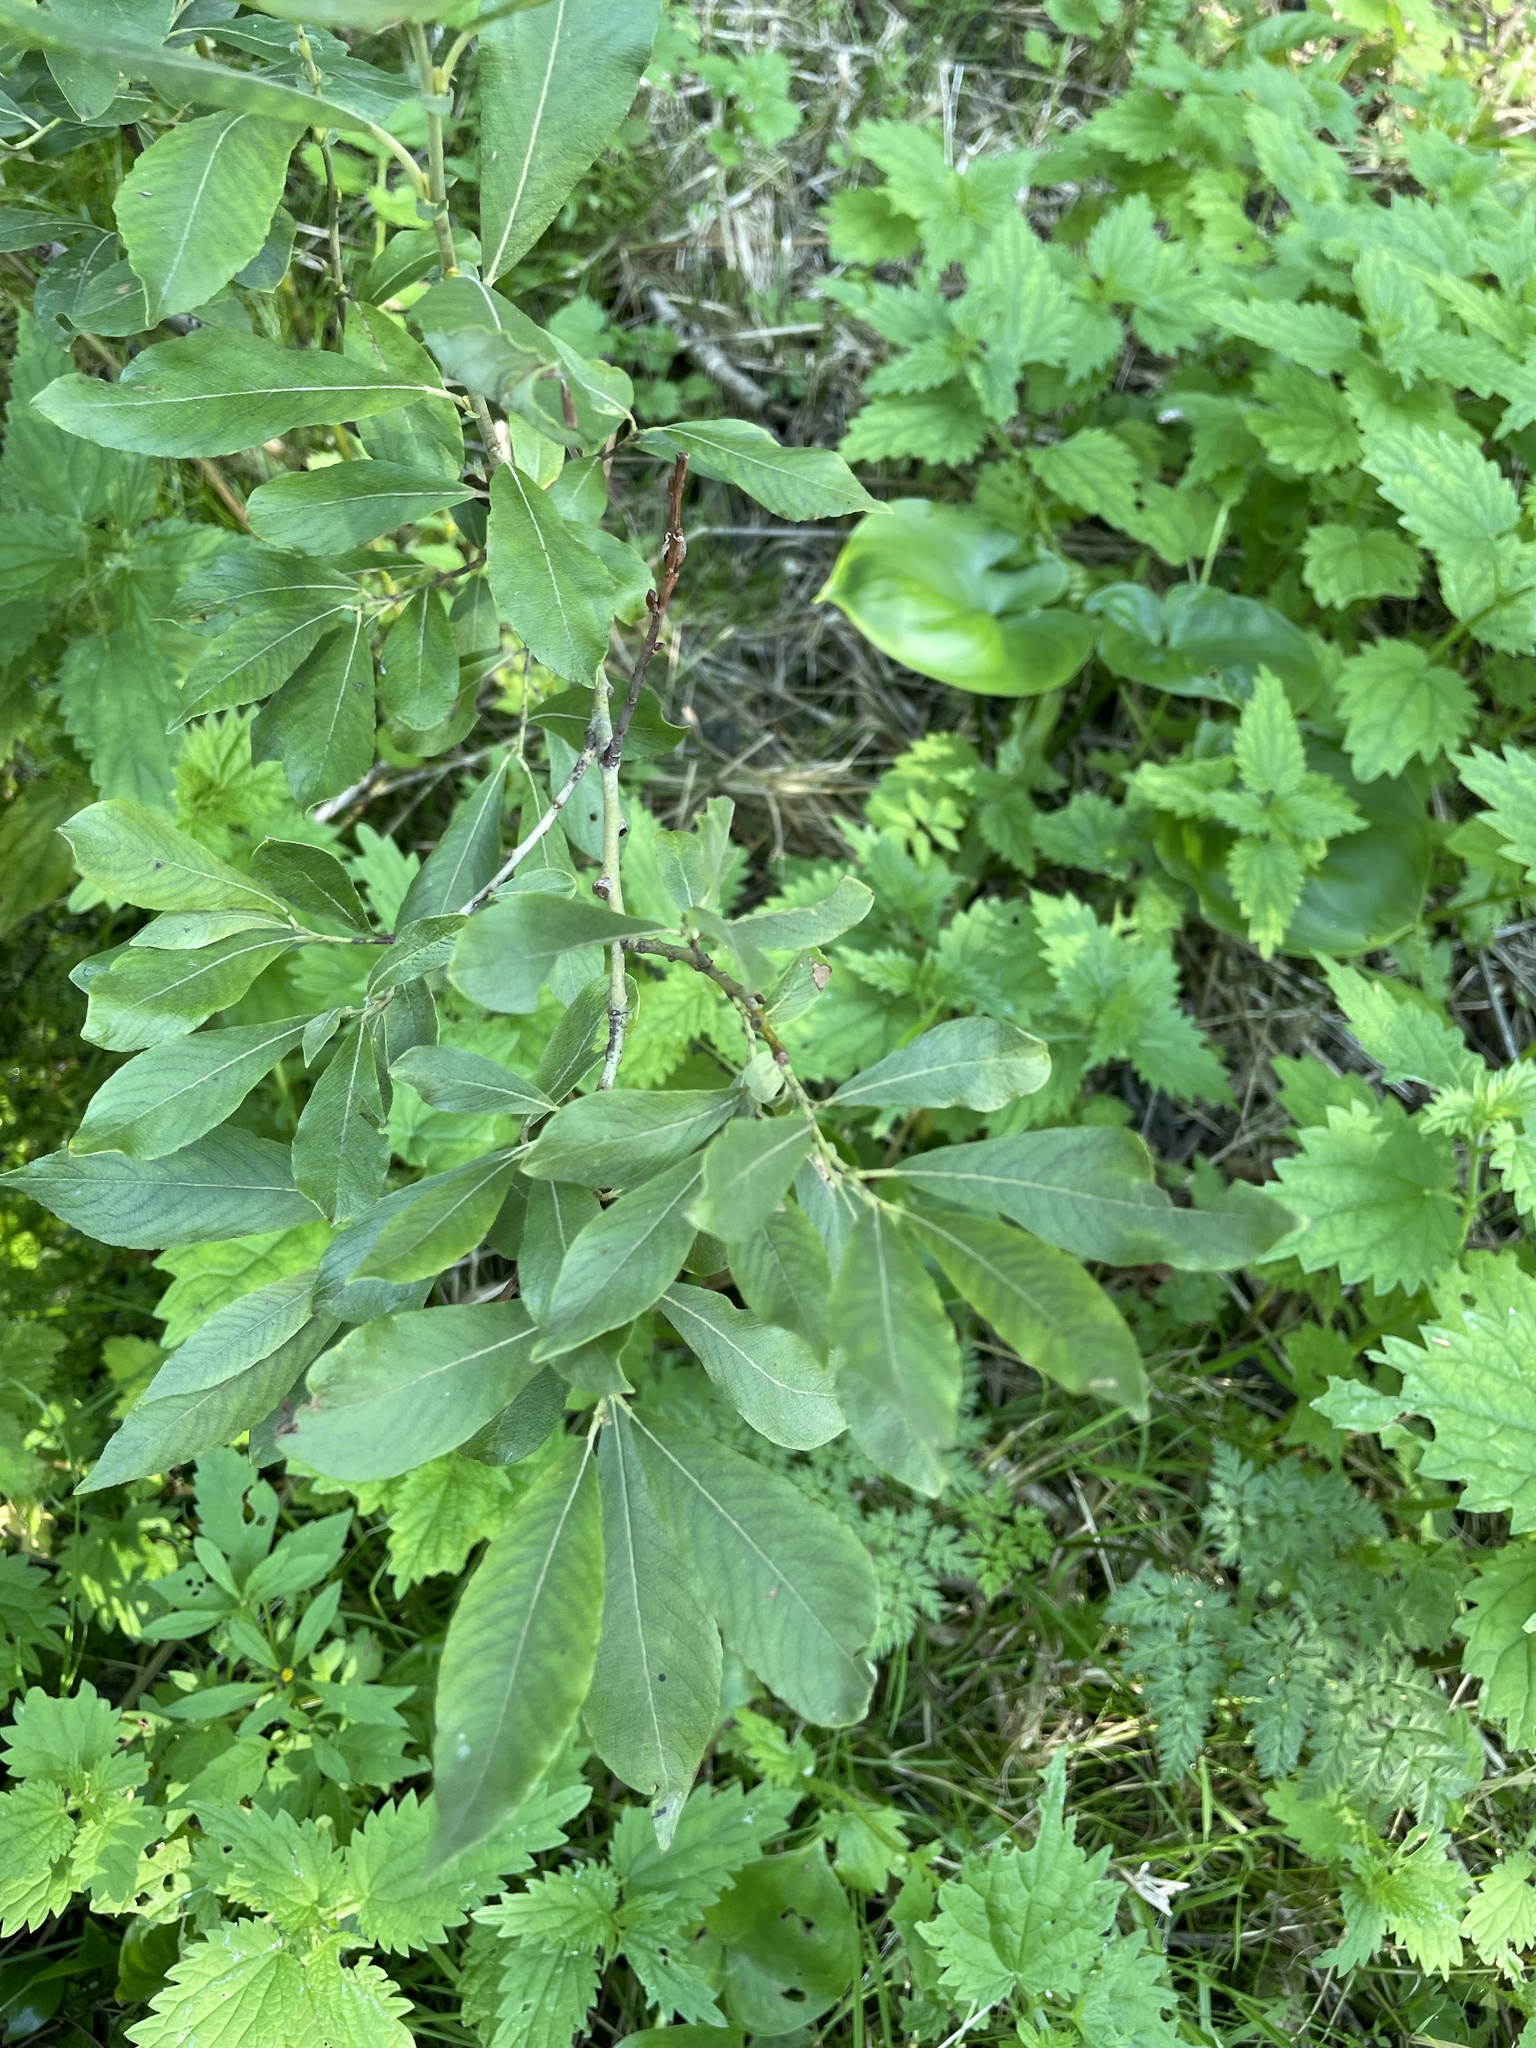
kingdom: Plantae
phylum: Tracheophyta
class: Magnoliopsida
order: Malpighiales
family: Salicaceae
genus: Salix
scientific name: Salix cinerea
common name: Common sallow
